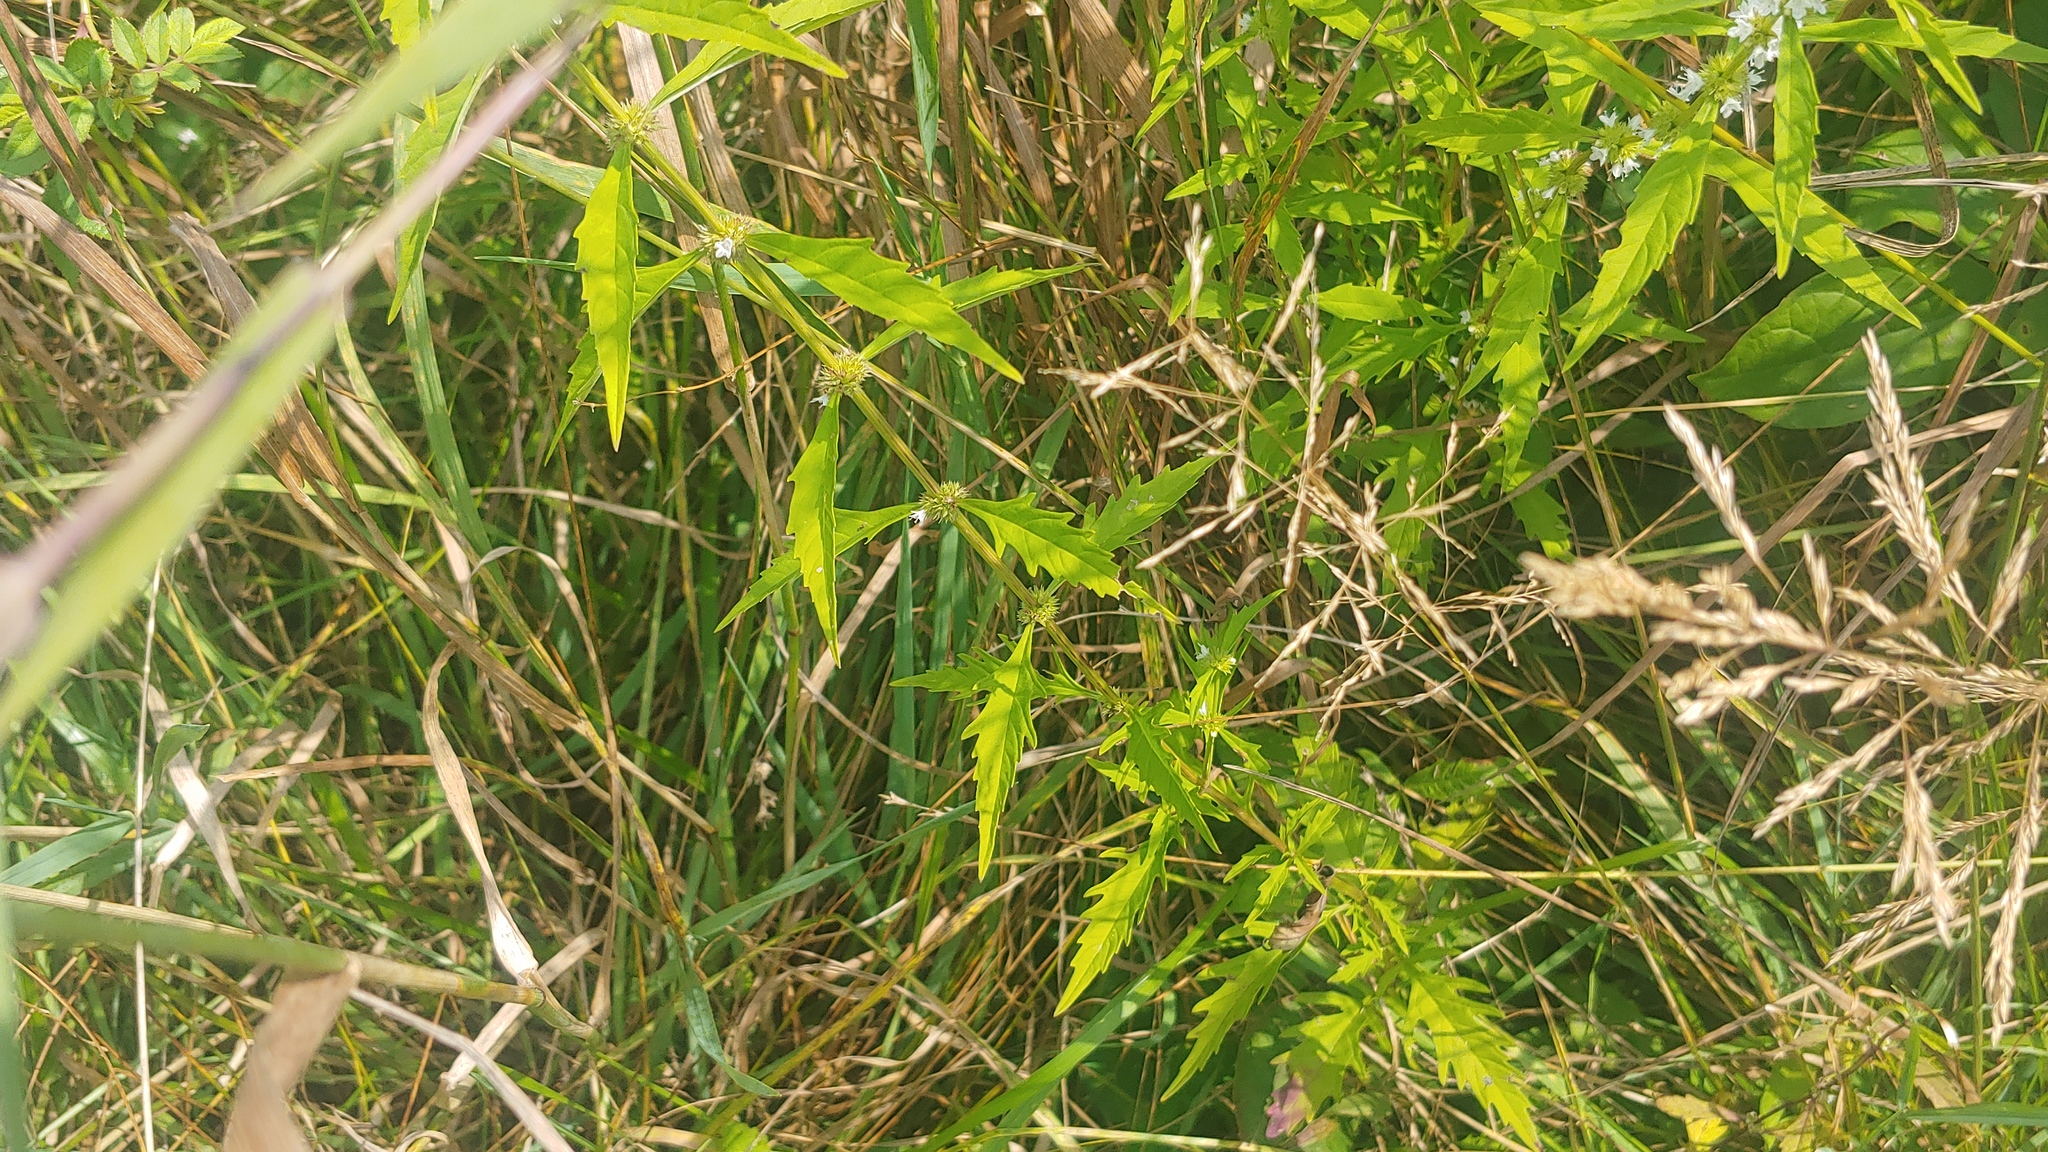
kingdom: Plantae
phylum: Tracheophyta
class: Magnoliopsida
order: Lamiales
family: Lamiaceae
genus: Lycopus
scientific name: Lycopus americanus
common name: American bugleweed
